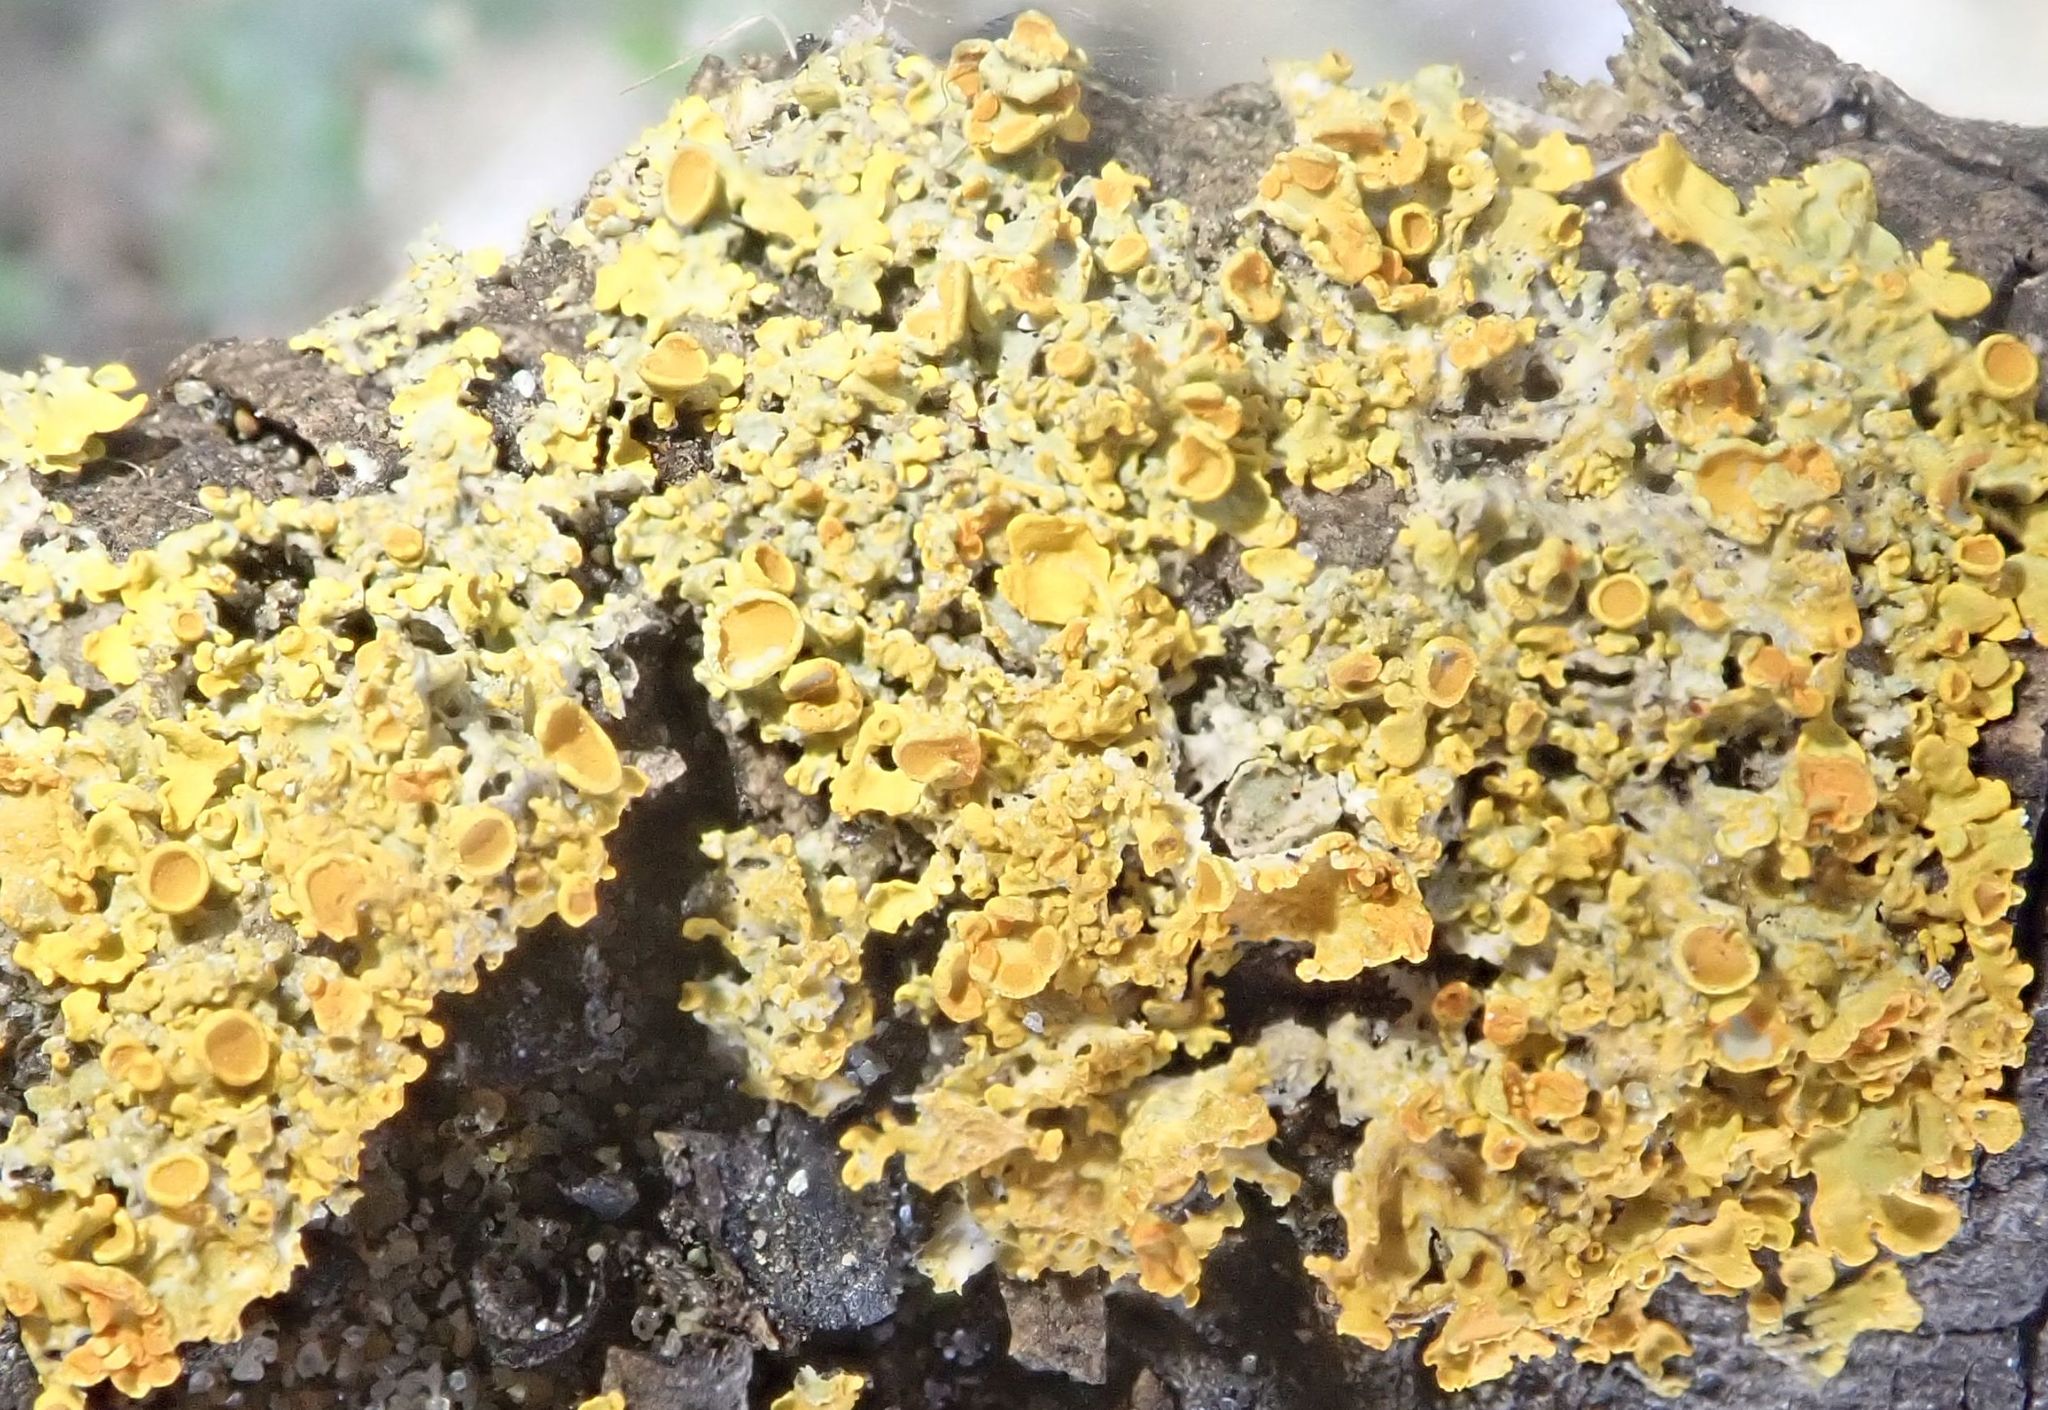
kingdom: Fungi
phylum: Ascomycota
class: Lecanoromycetes
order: Teloschistales
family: Teloschistaceae
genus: Xanthoria
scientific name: Xanthoria parietina
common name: Common orange lichen
